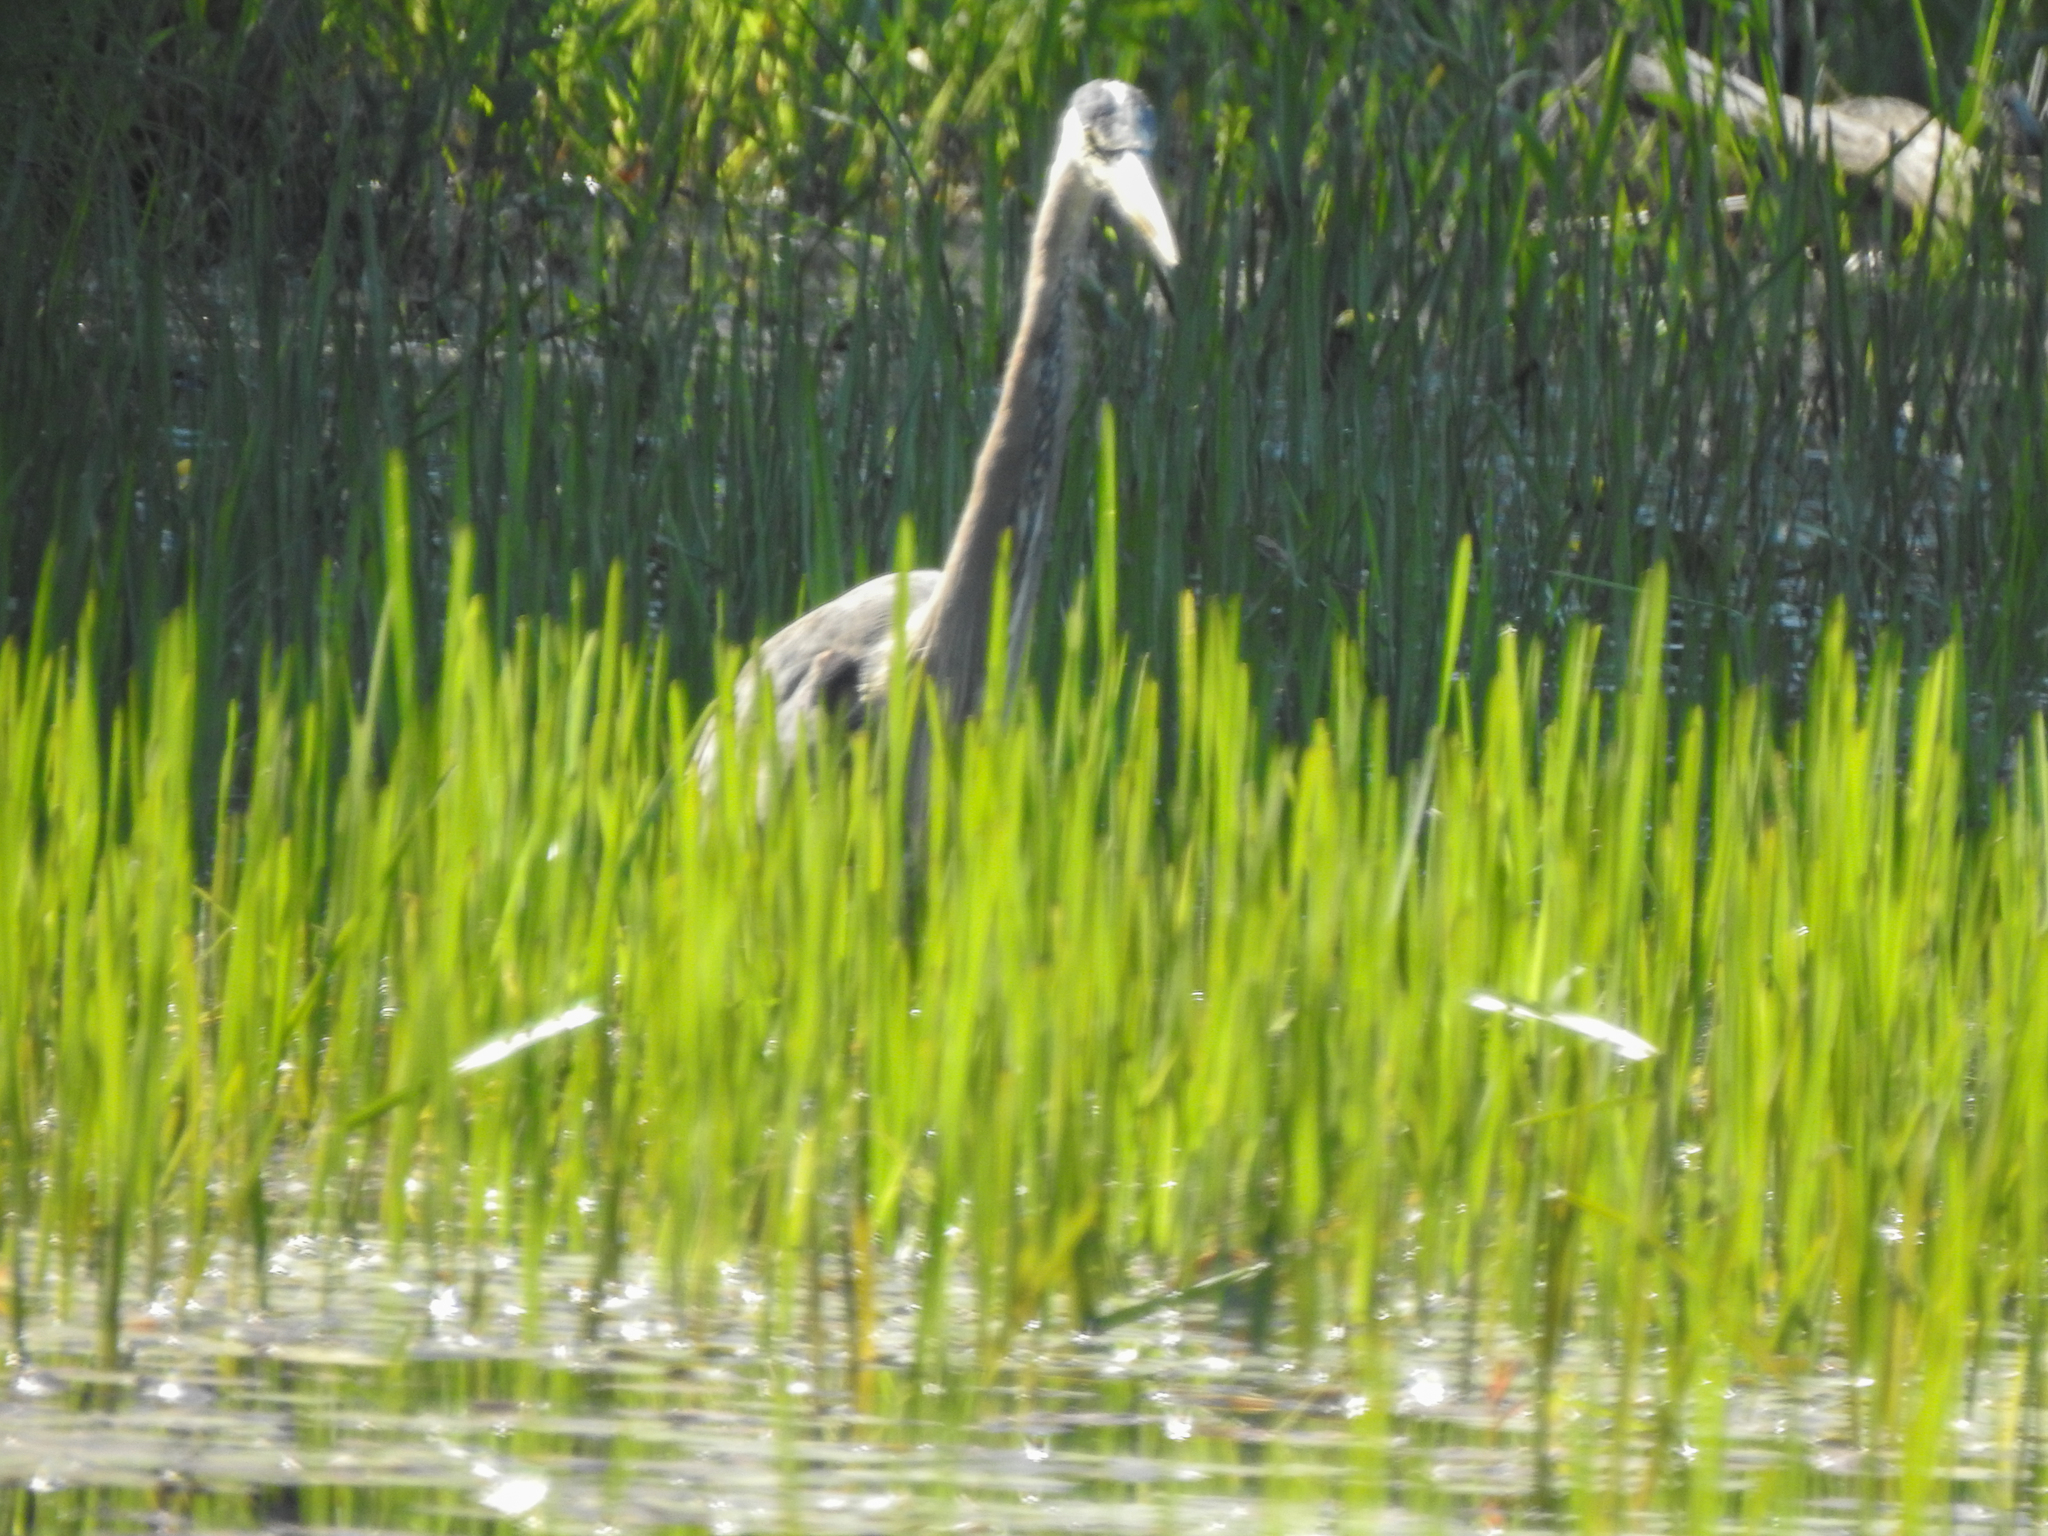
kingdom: Animalia
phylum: Chordata
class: Aves
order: Pelecaniformes
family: Ardeidae
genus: Ardea
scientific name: Ardea herodias
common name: Great blue heron
